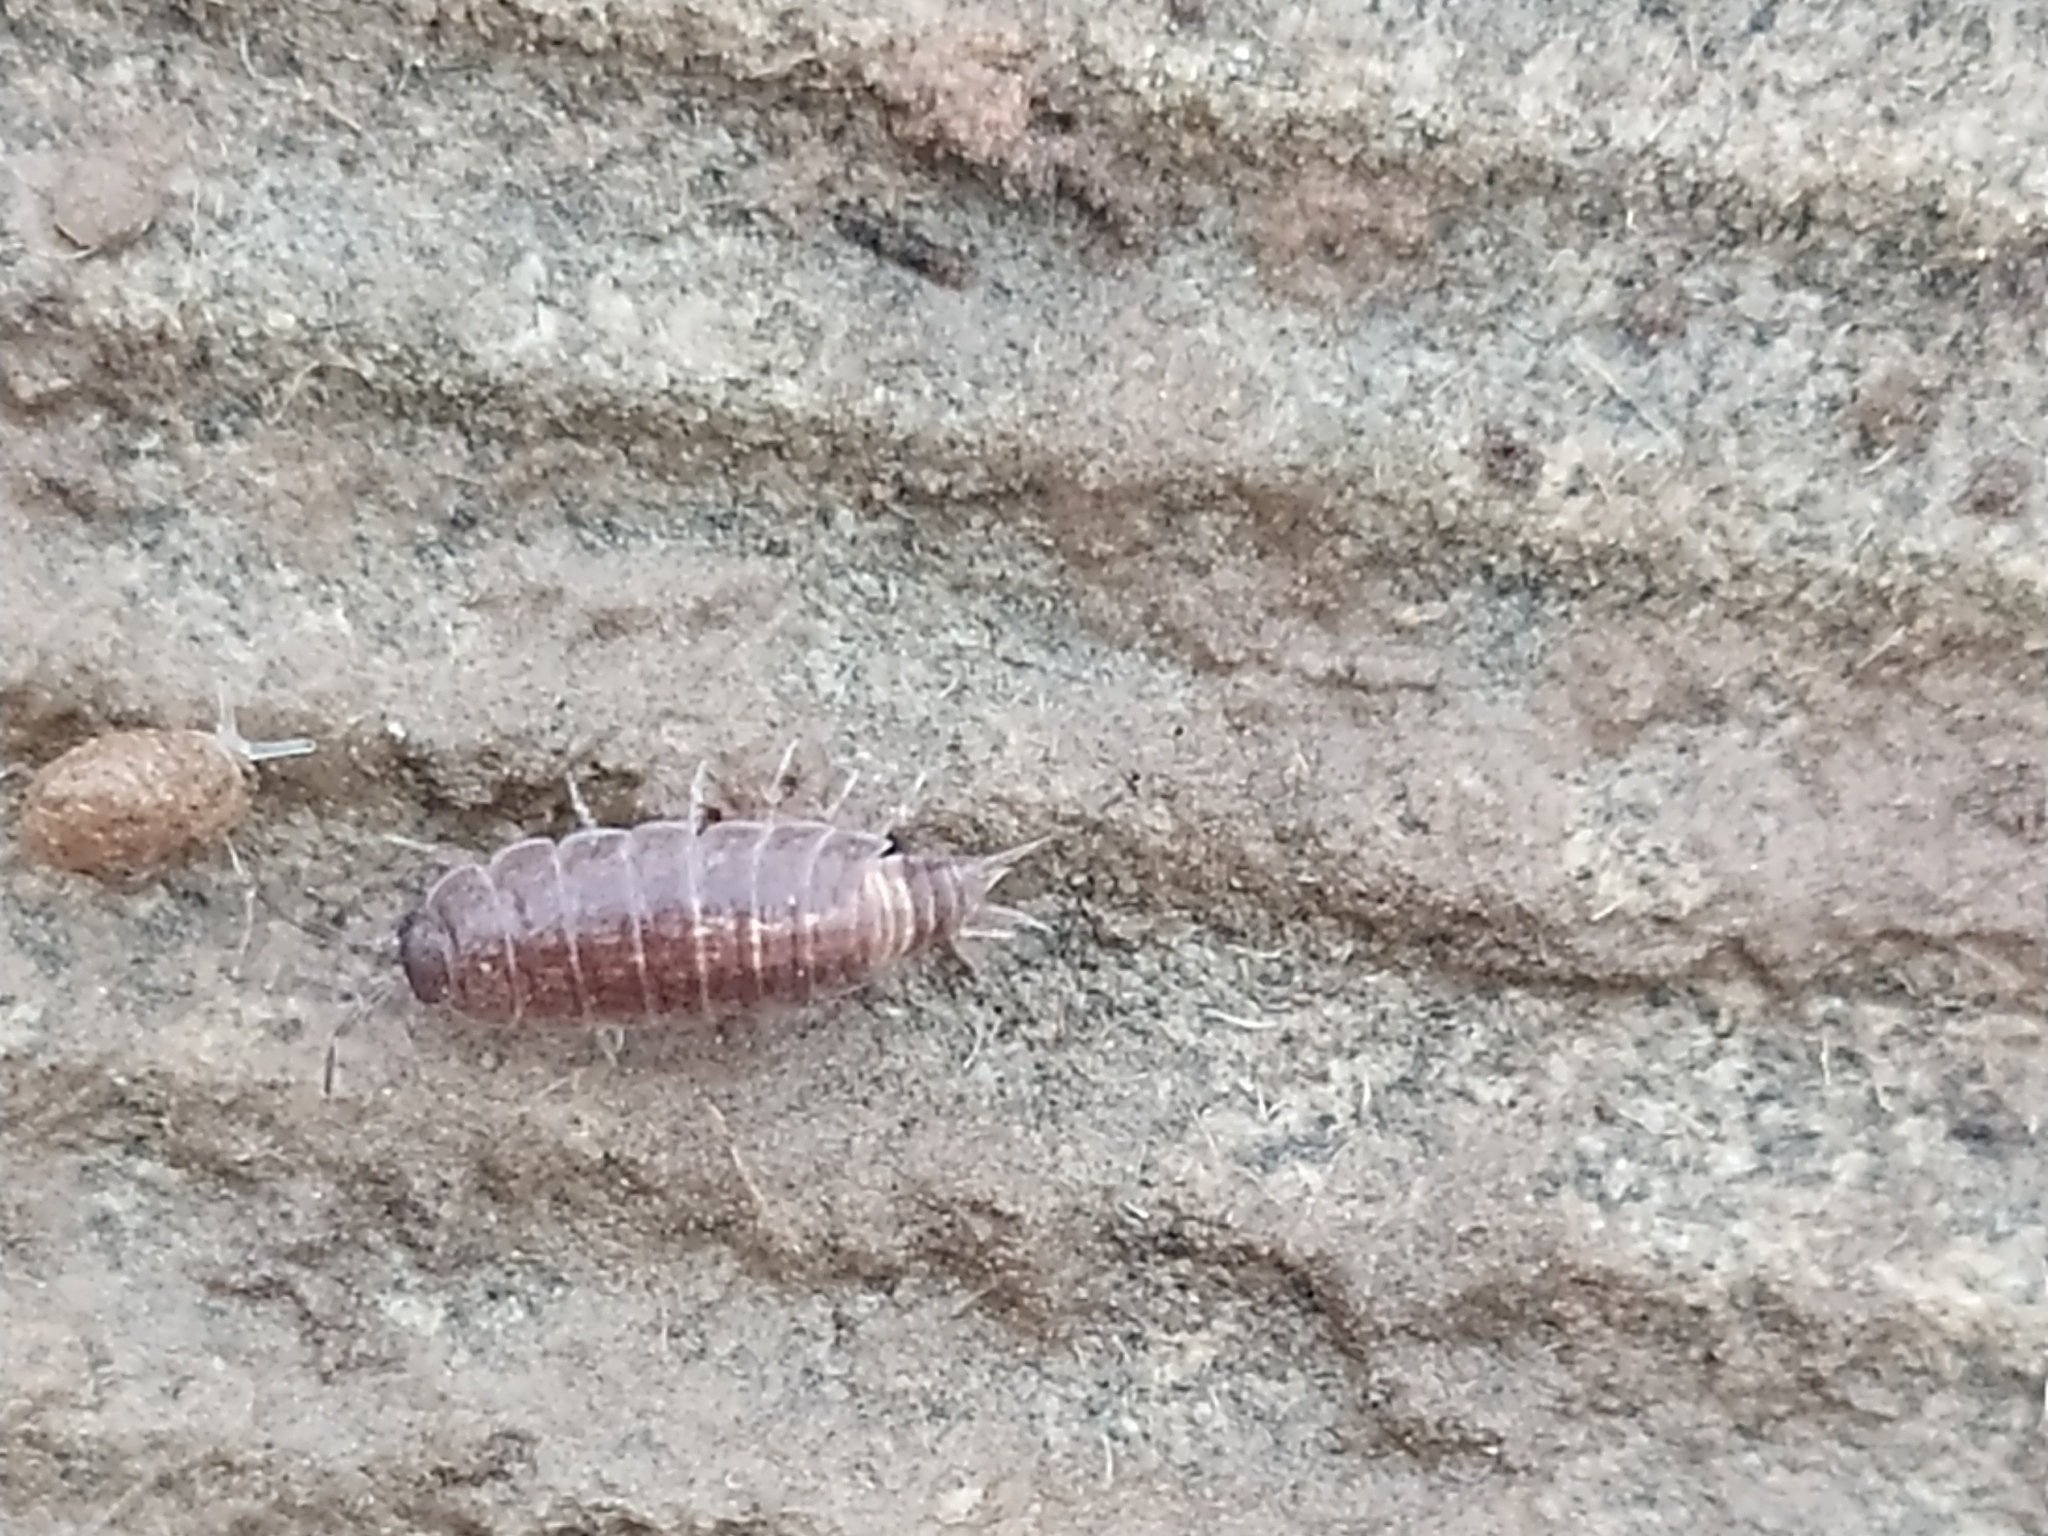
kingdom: Animalia
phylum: Arthropoda
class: Malacostraca
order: Isopoda
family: Trichoniscidae
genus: Hyloniscus
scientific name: Hyloniscus riparius
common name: Isopod
